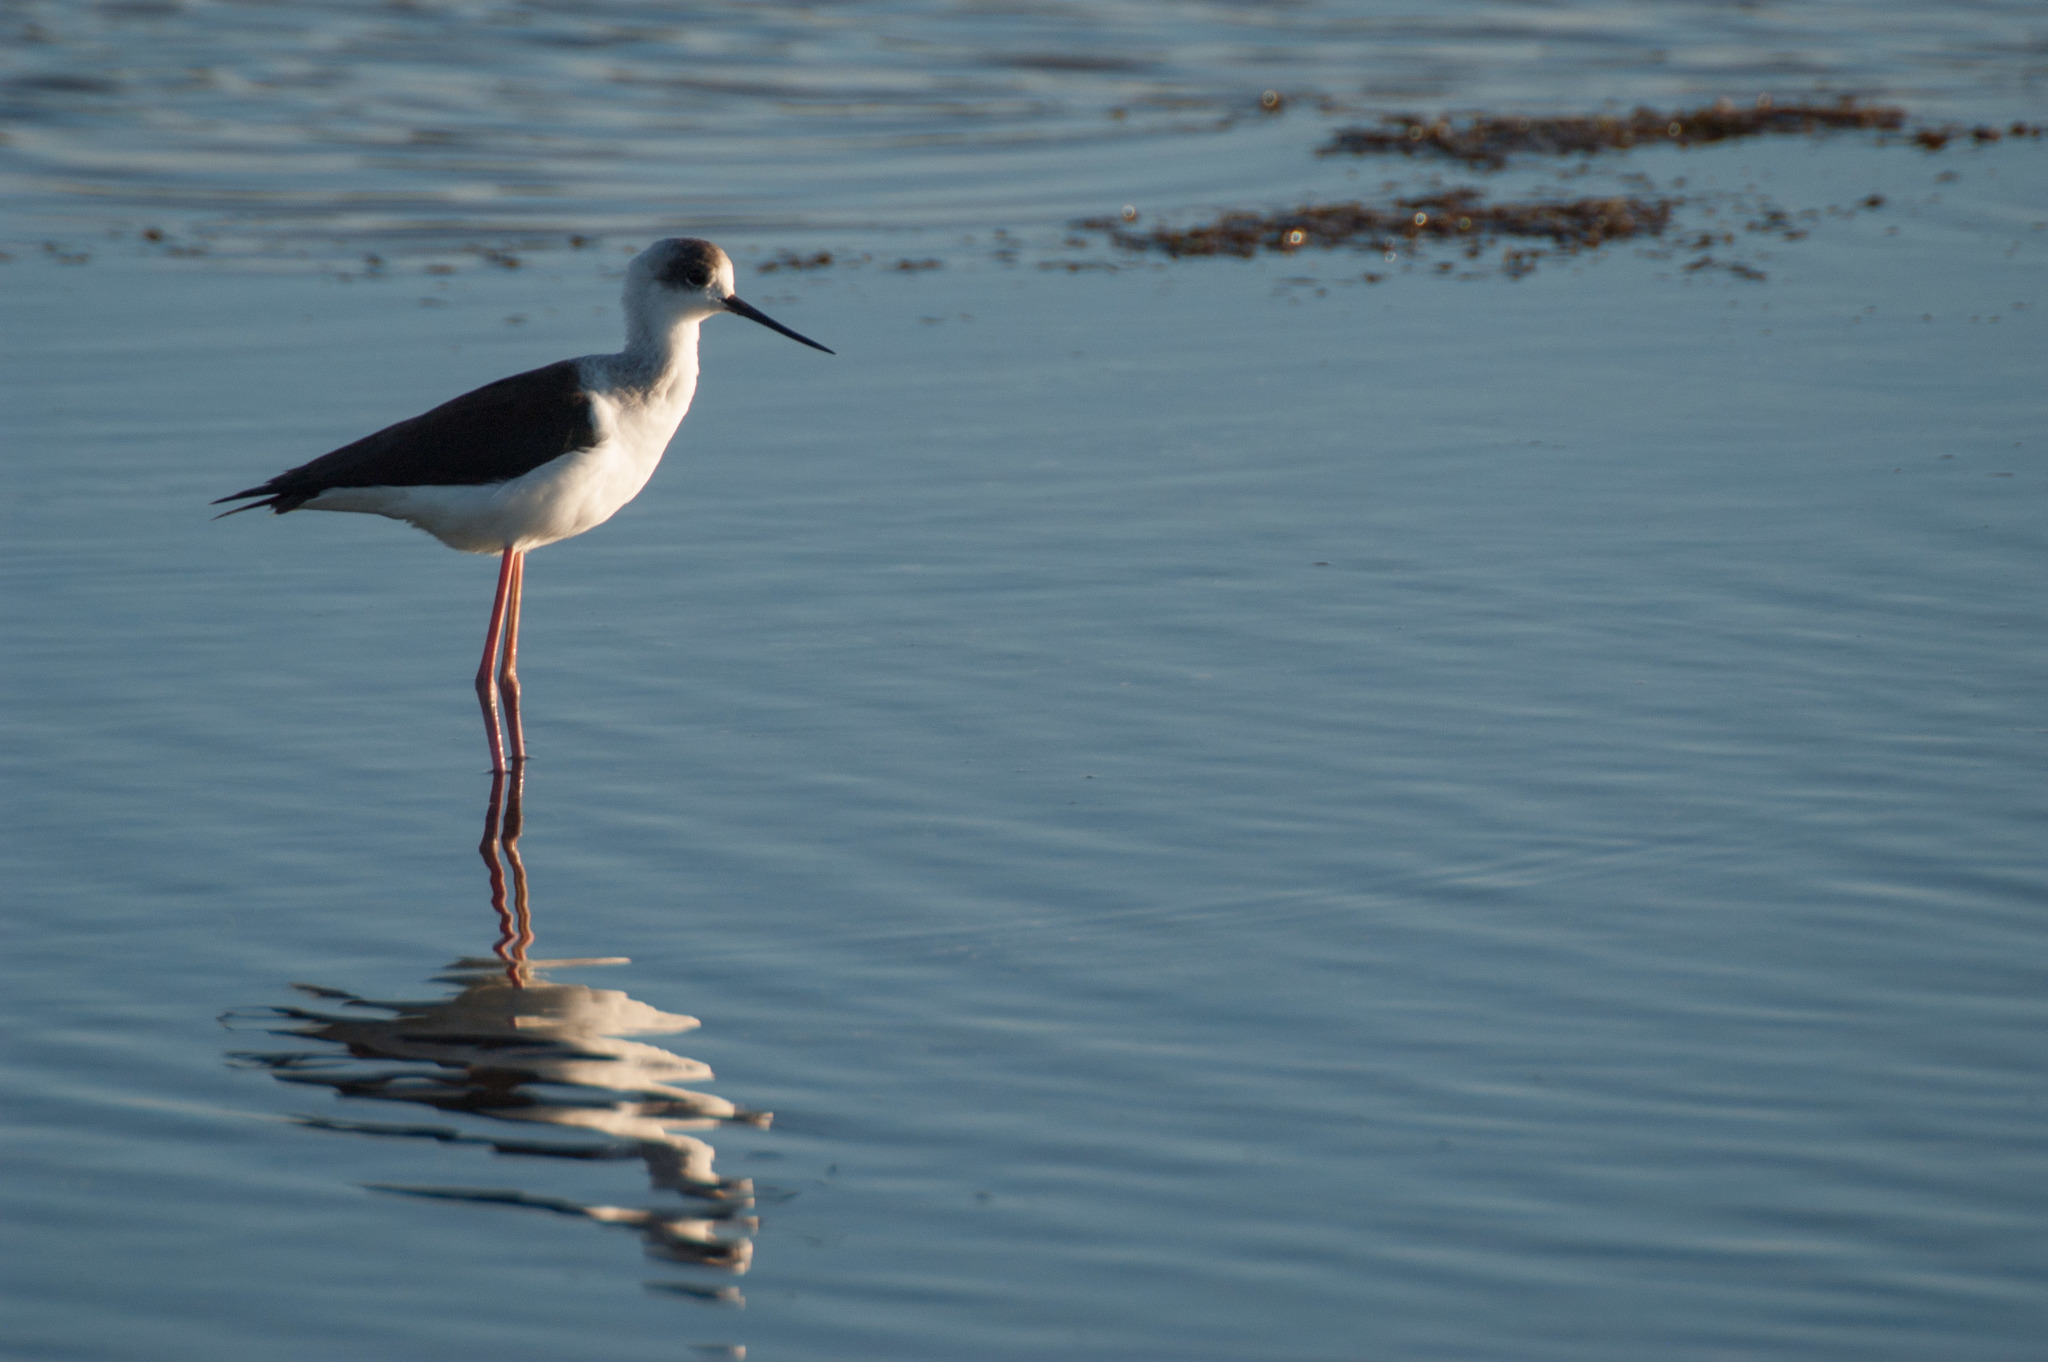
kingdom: Animalia
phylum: Chordata
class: Aves
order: Charadriiformes
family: Recurvirostridae
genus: Himantopus
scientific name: Himantopus leucocephalus
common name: White-headed stilt
